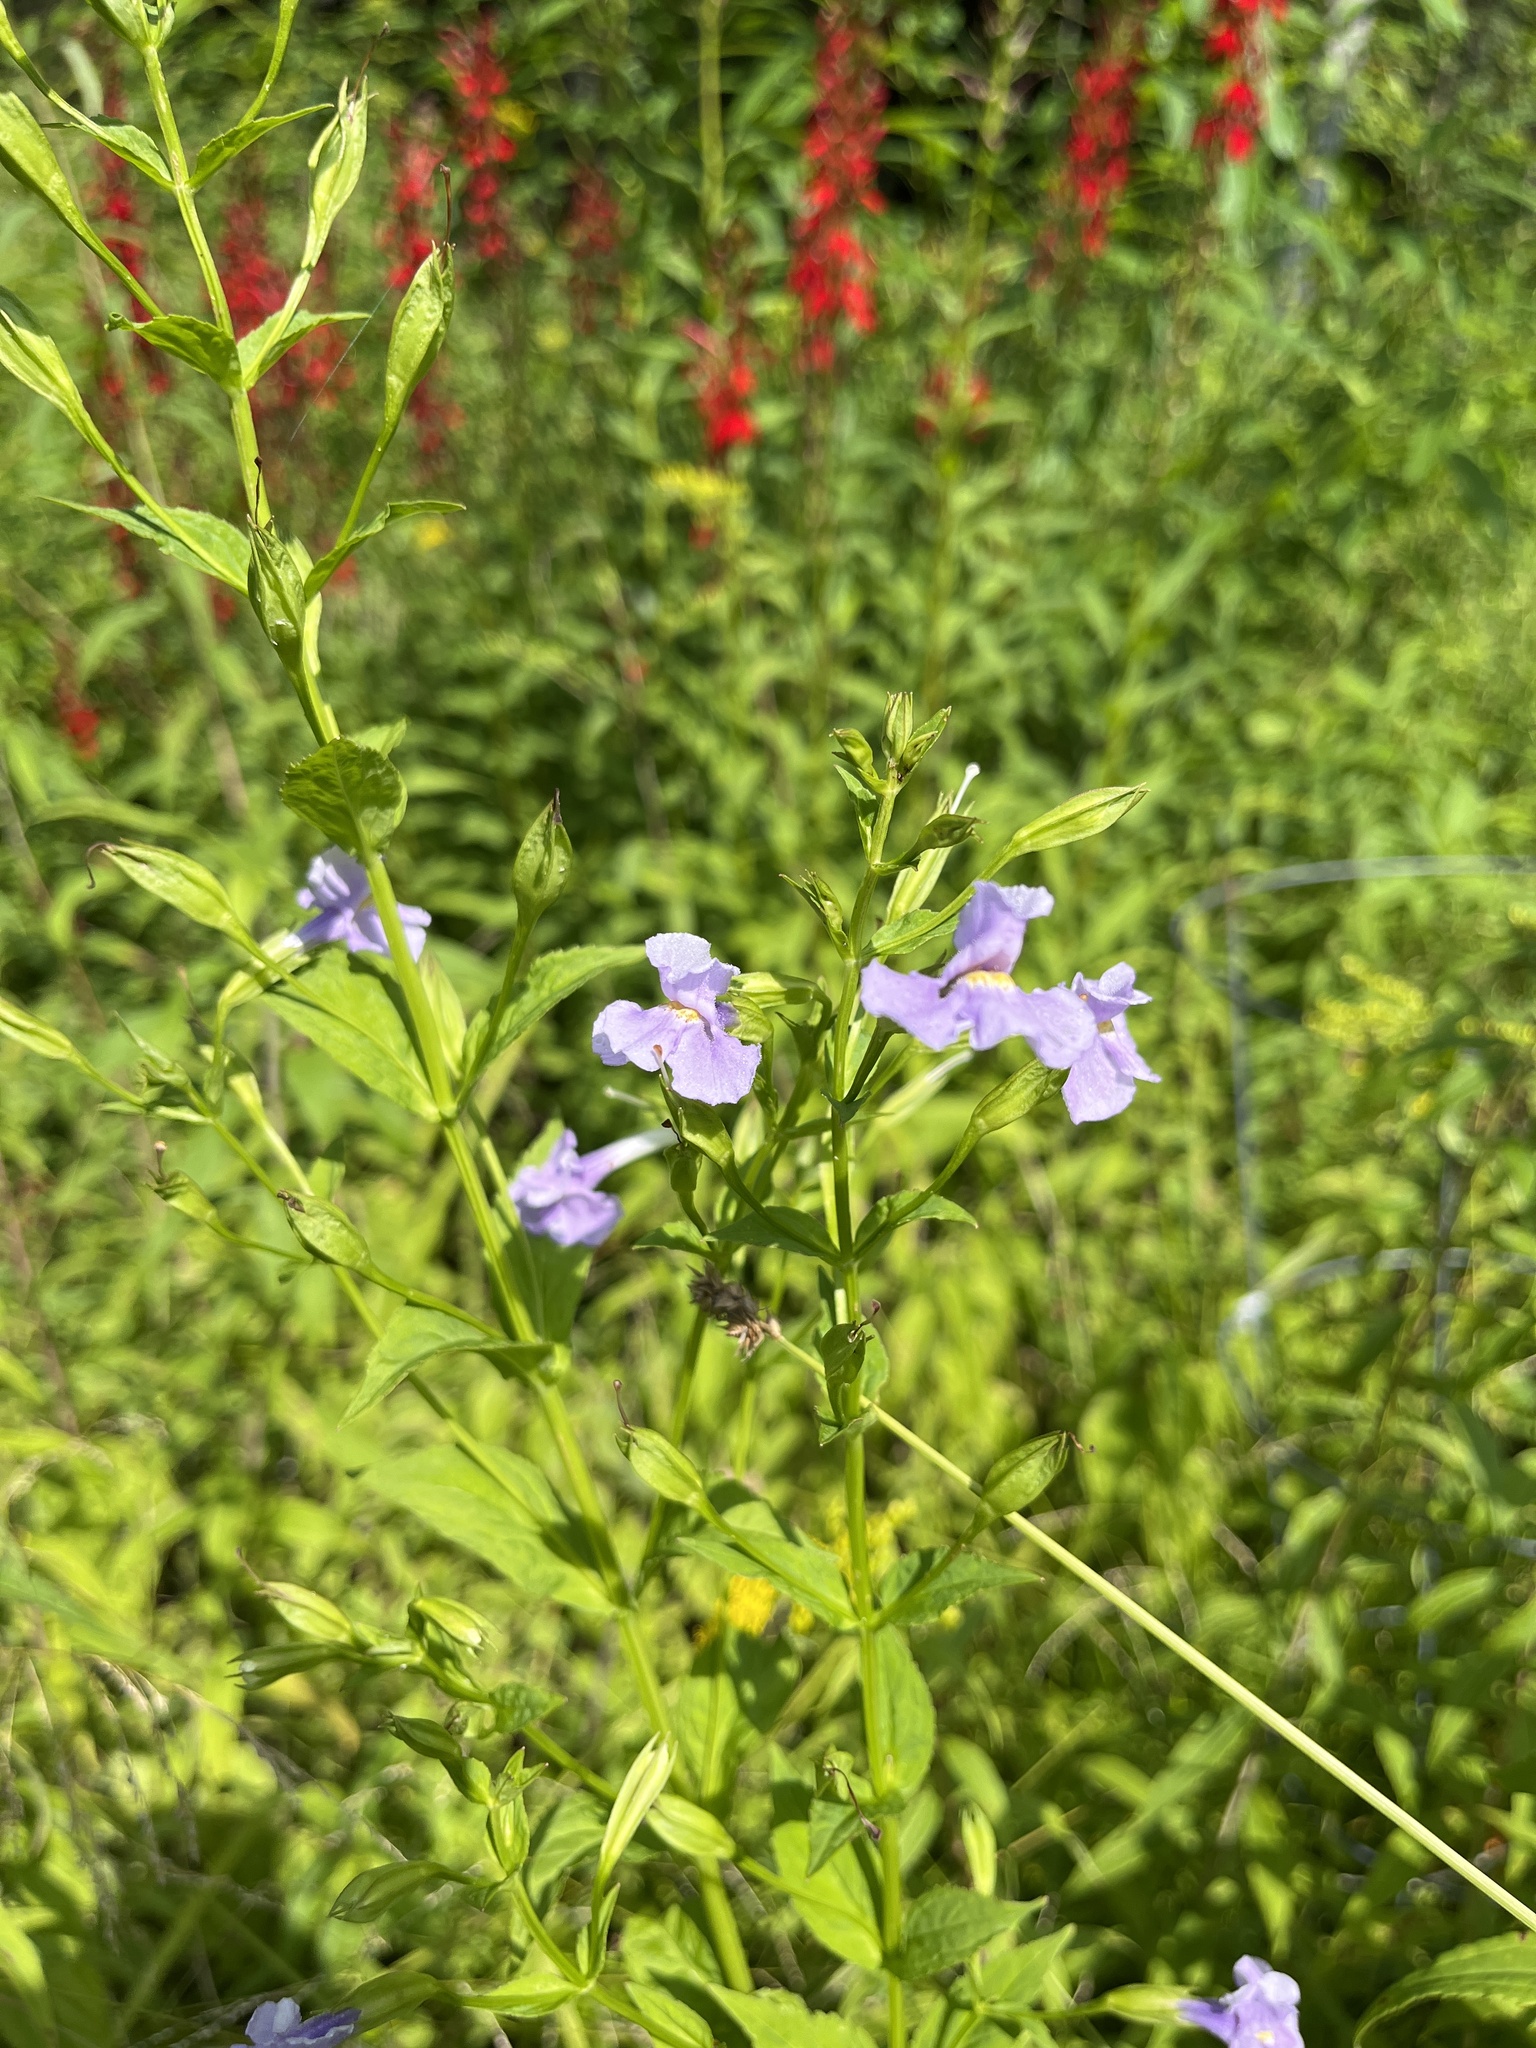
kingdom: Plantae
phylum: Tracheophyta
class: Magnoliopsida
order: Lamiales
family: Phrymaceae
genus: Mimulus
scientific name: Mimulus ringens
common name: Allegheny monkeyflower
